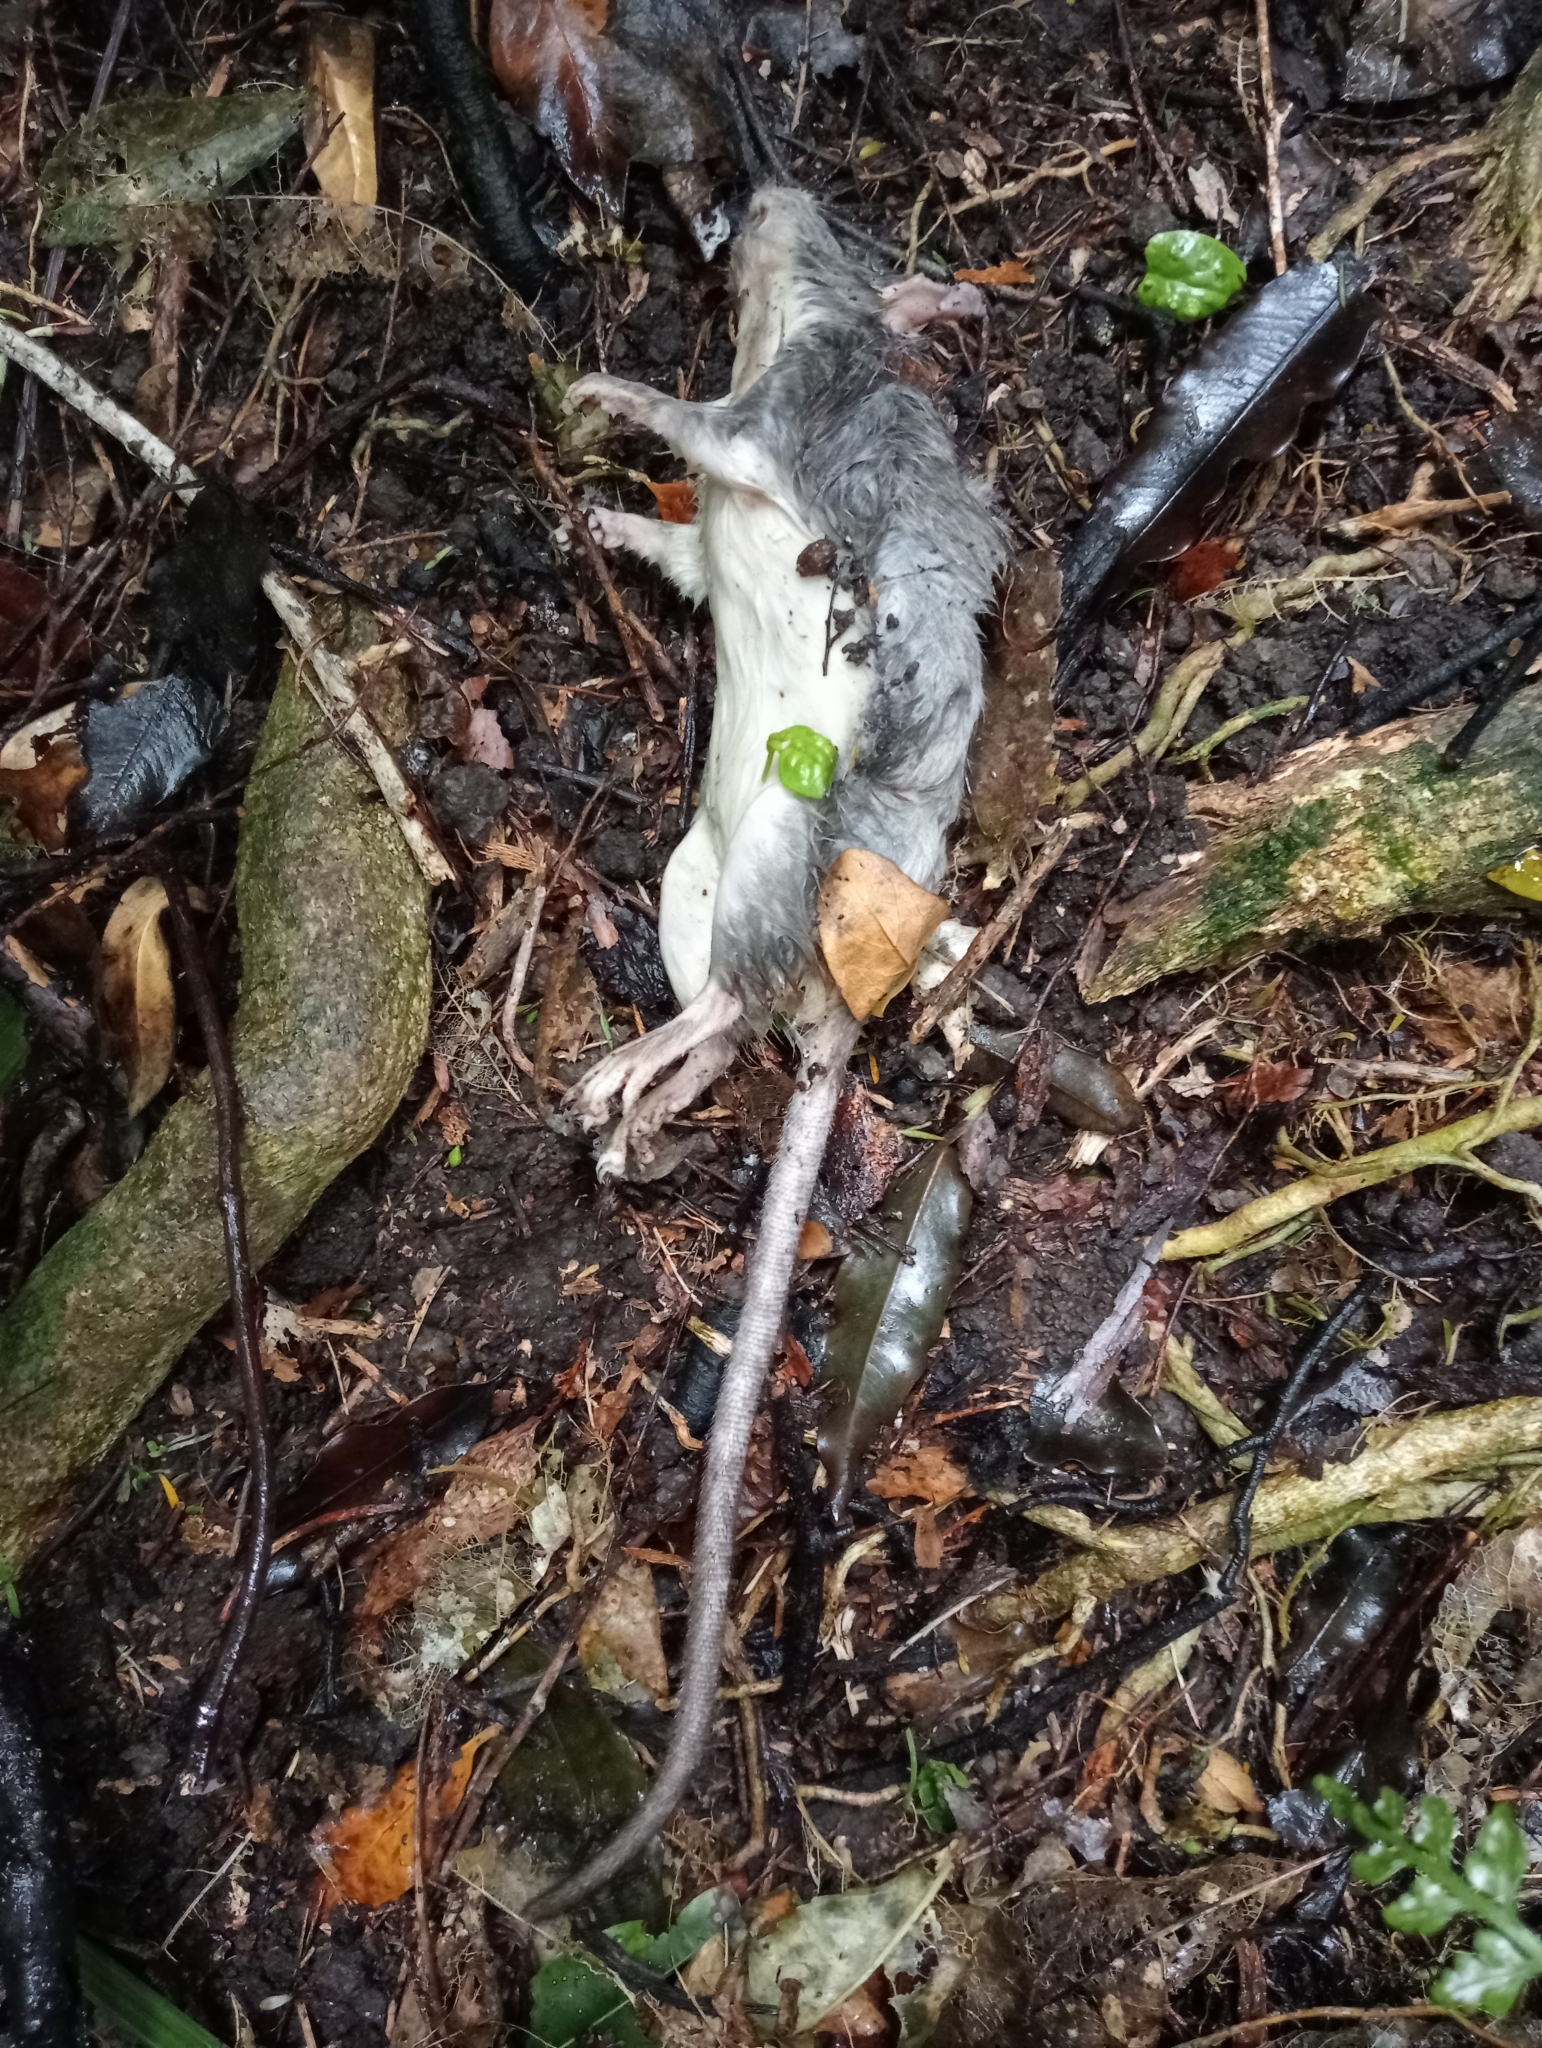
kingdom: Animalia
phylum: Chordata
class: Mammalia
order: Rodentia
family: Muridae
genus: Rattus
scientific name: Rattus rattus
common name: Black rat
